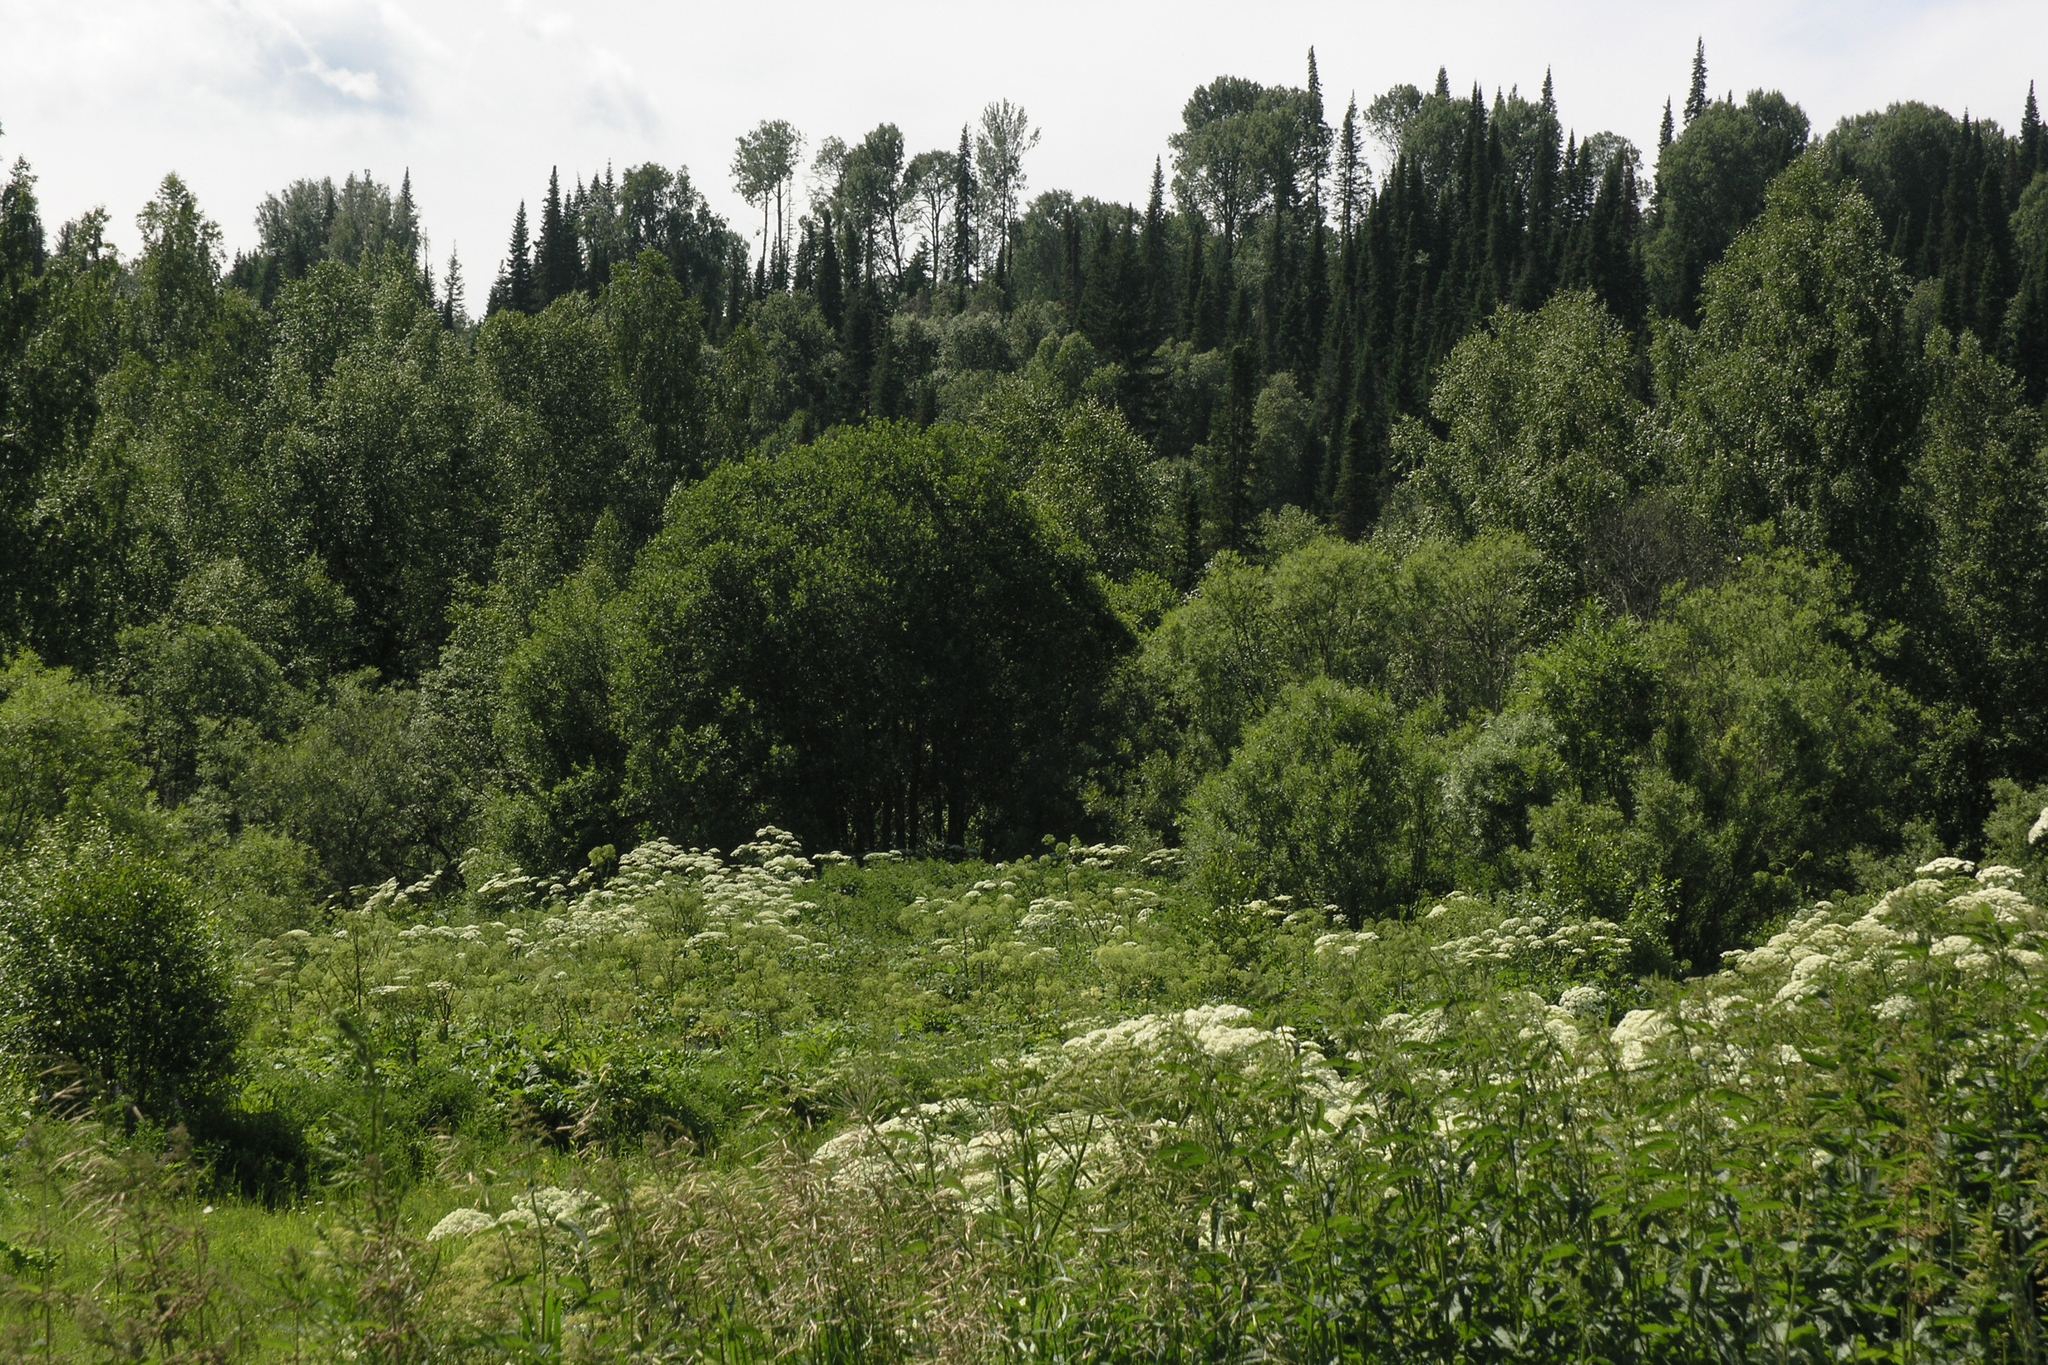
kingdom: Plantae
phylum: Tracheophyta
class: Pinopsida
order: Pinales
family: Pinaceae
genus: Abies
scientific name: Abies sibirica
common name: Siberian fir
